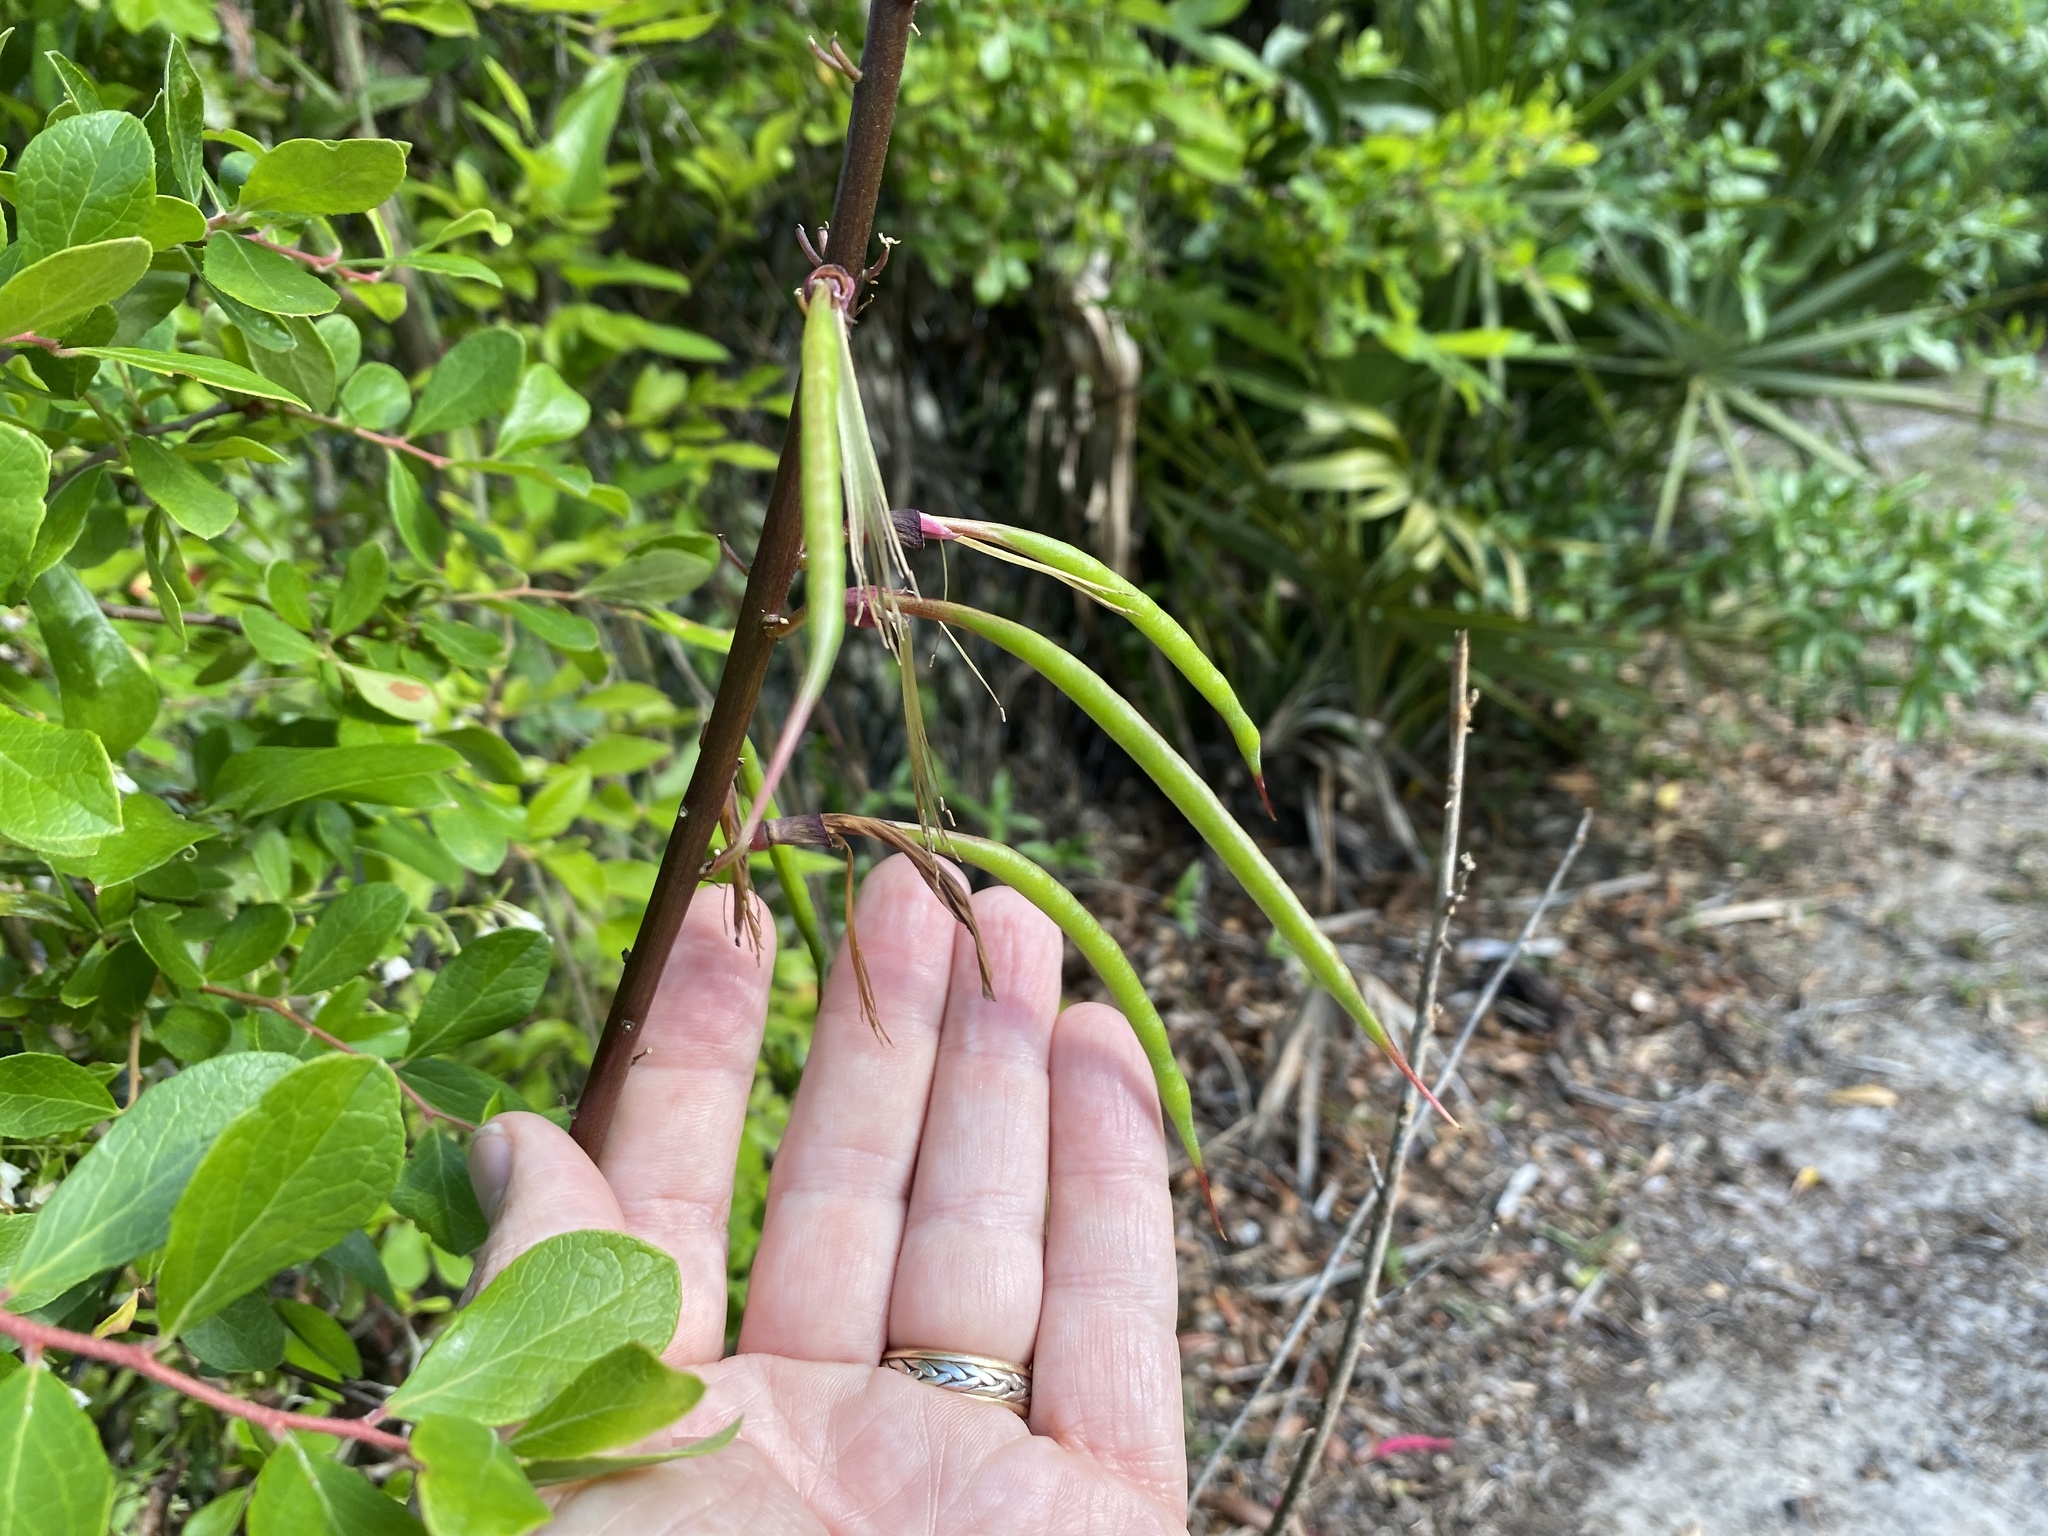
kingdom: Plantae
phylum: Tracheophyta
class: Magnoliopsida
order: Fabales
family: Fabaceae
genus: Erythrina
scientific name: Erythrina herbacea
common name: Coral-bean
